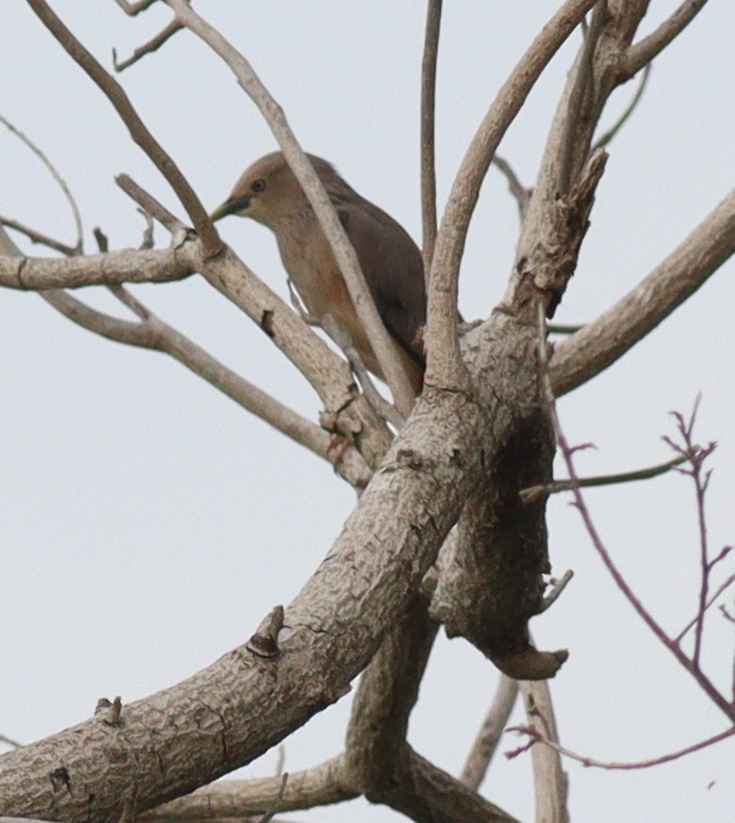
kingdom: Animalia
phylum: Chordata
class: Aves
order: Passeriformes
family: Sturnidae
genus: Sturnia
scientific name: Sturnia malabarica
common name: Chestnut-tailed starling
